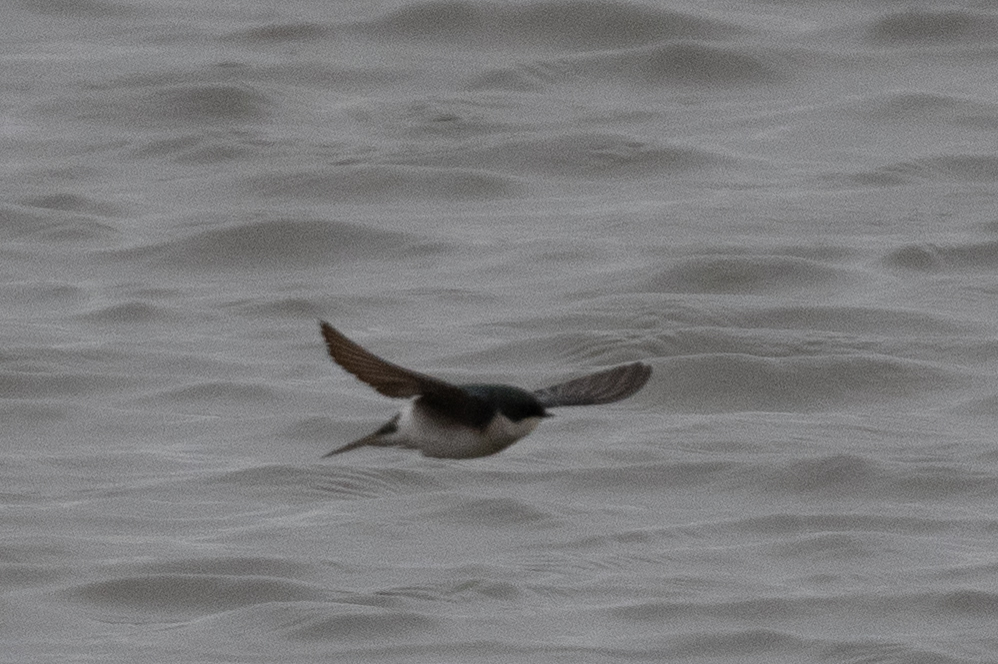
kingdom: Animalia
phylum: Chordata
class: Aves
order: Passeriformes
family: Hirundinidae
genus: Tachycineta
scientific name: Tachycineta bicolor
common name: Tree swallow
